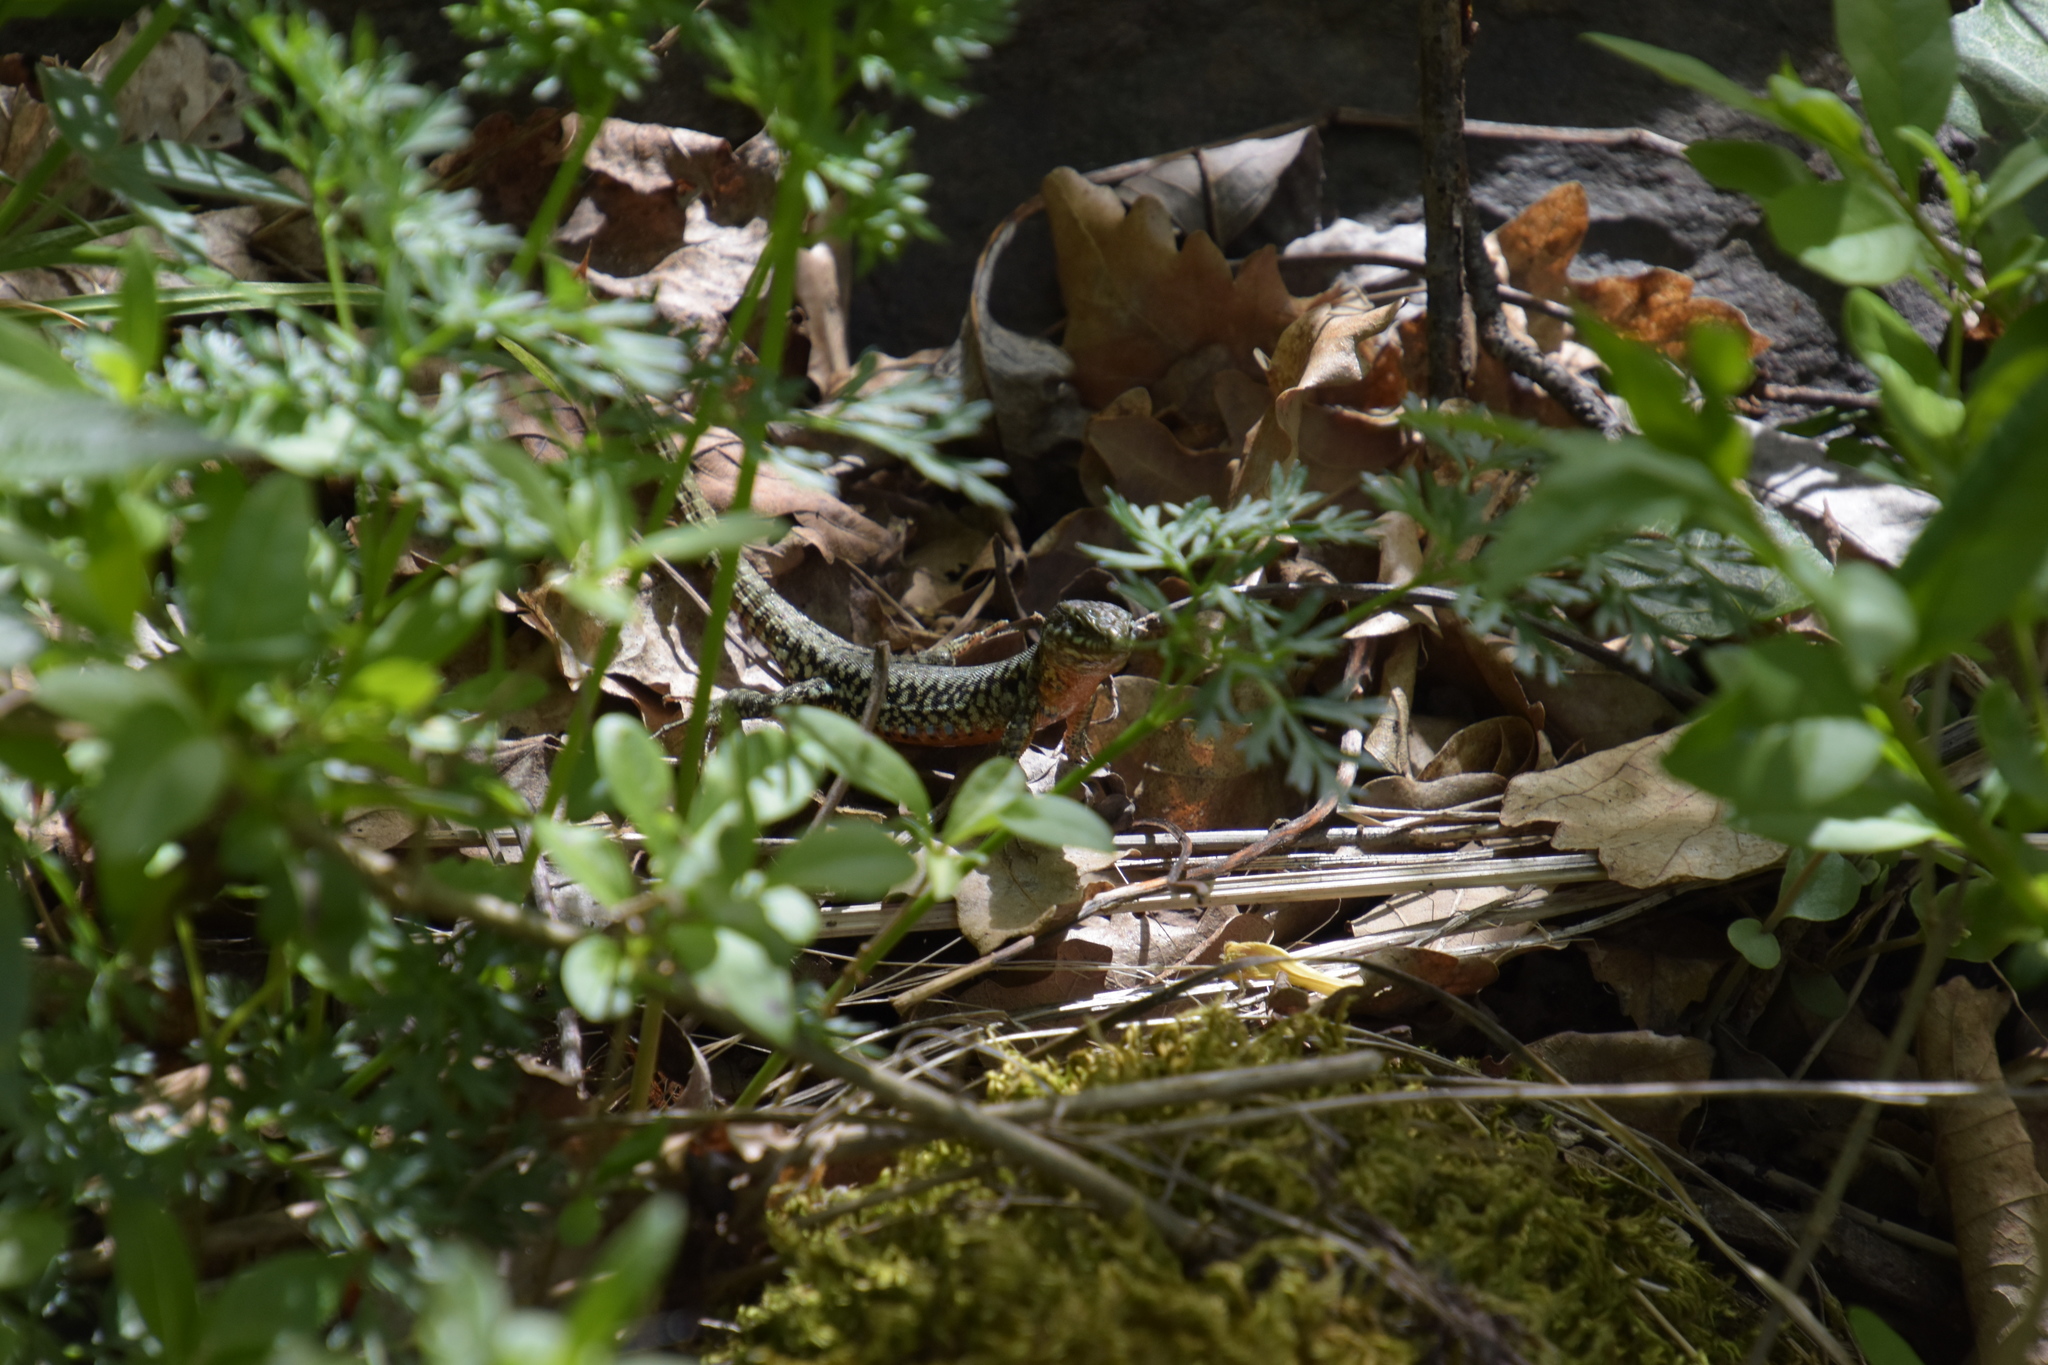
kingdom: Animalia
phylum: Chordata
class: Squamata
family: Lacertidae
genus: Podarcis
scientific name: Podarcis muralis
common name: Common wall lizard
